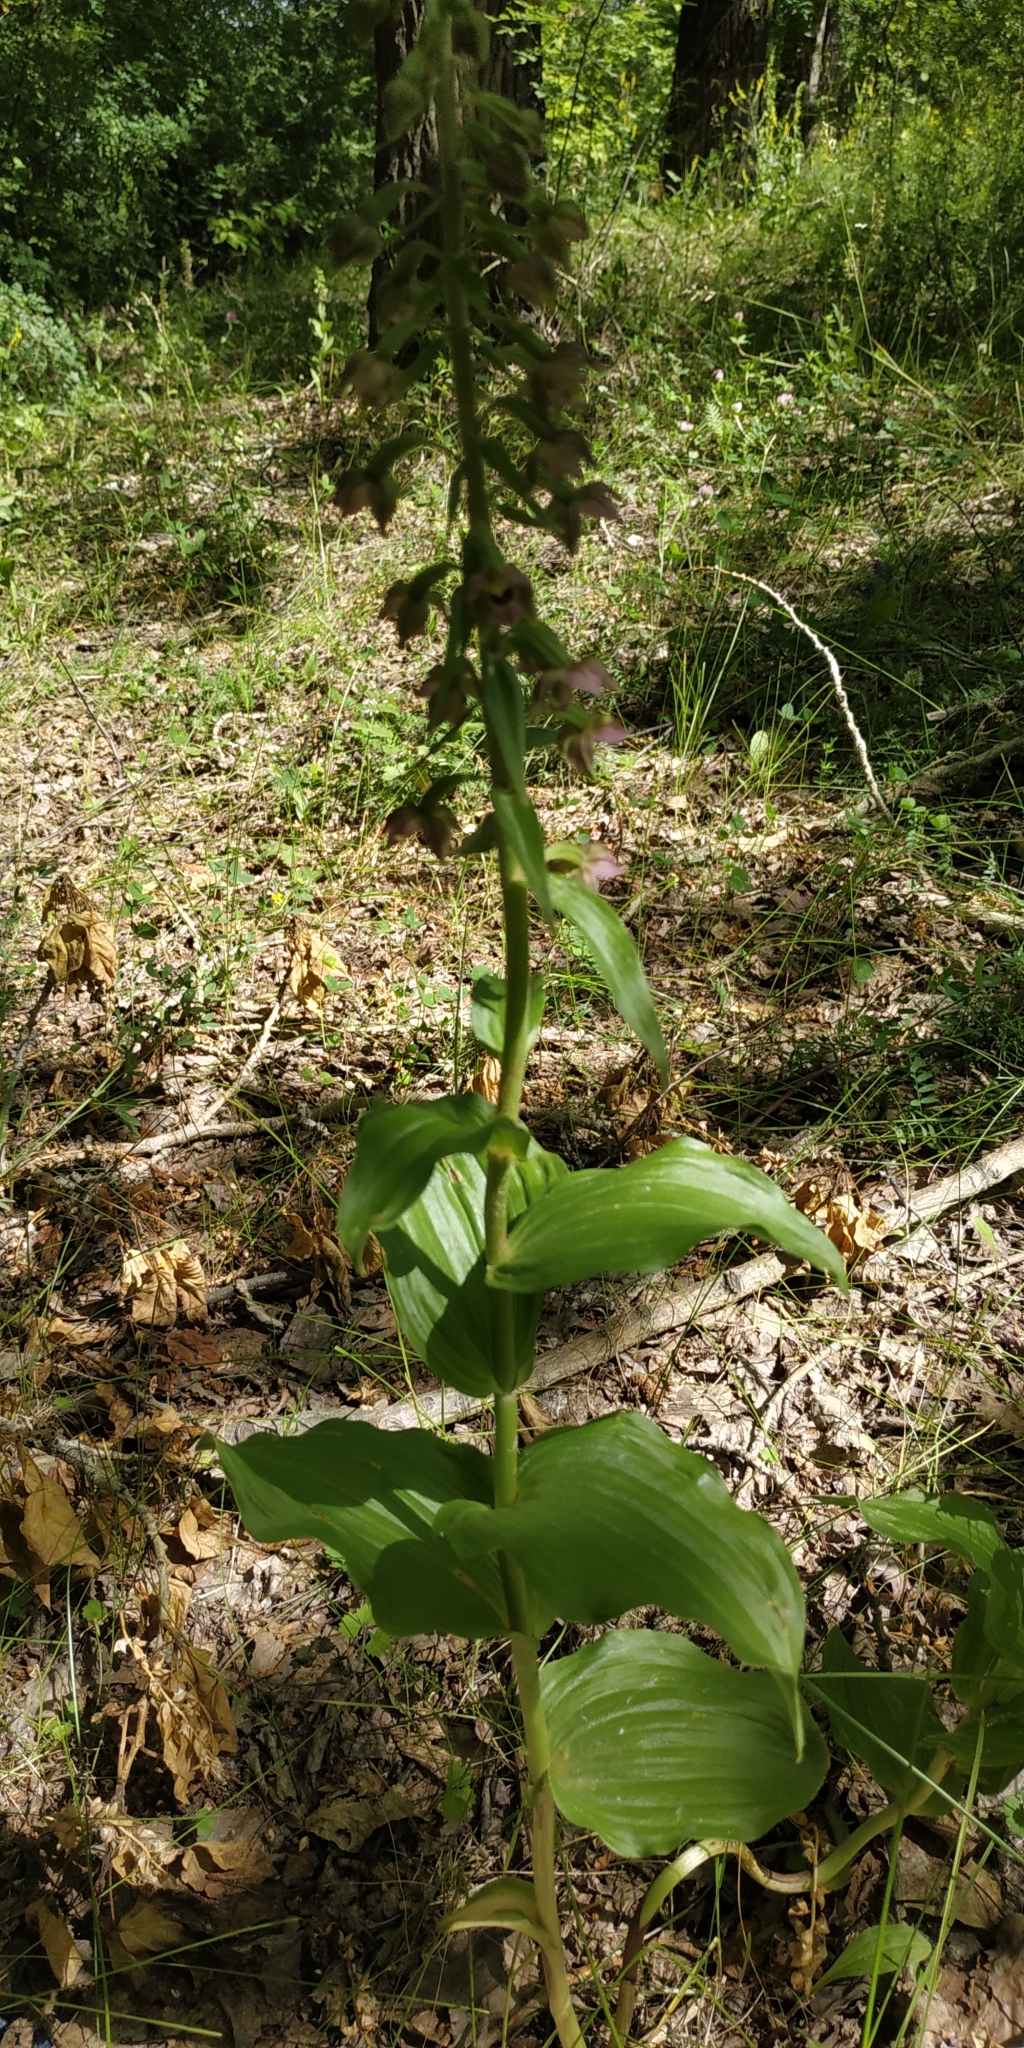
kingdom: Plantae
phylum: Tracheophyta
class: Liliopsida
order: Asparagales
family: Orchidaceae
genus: Epipactis
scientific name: Epipactis helleborine
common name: Broad-leaved helleborine
